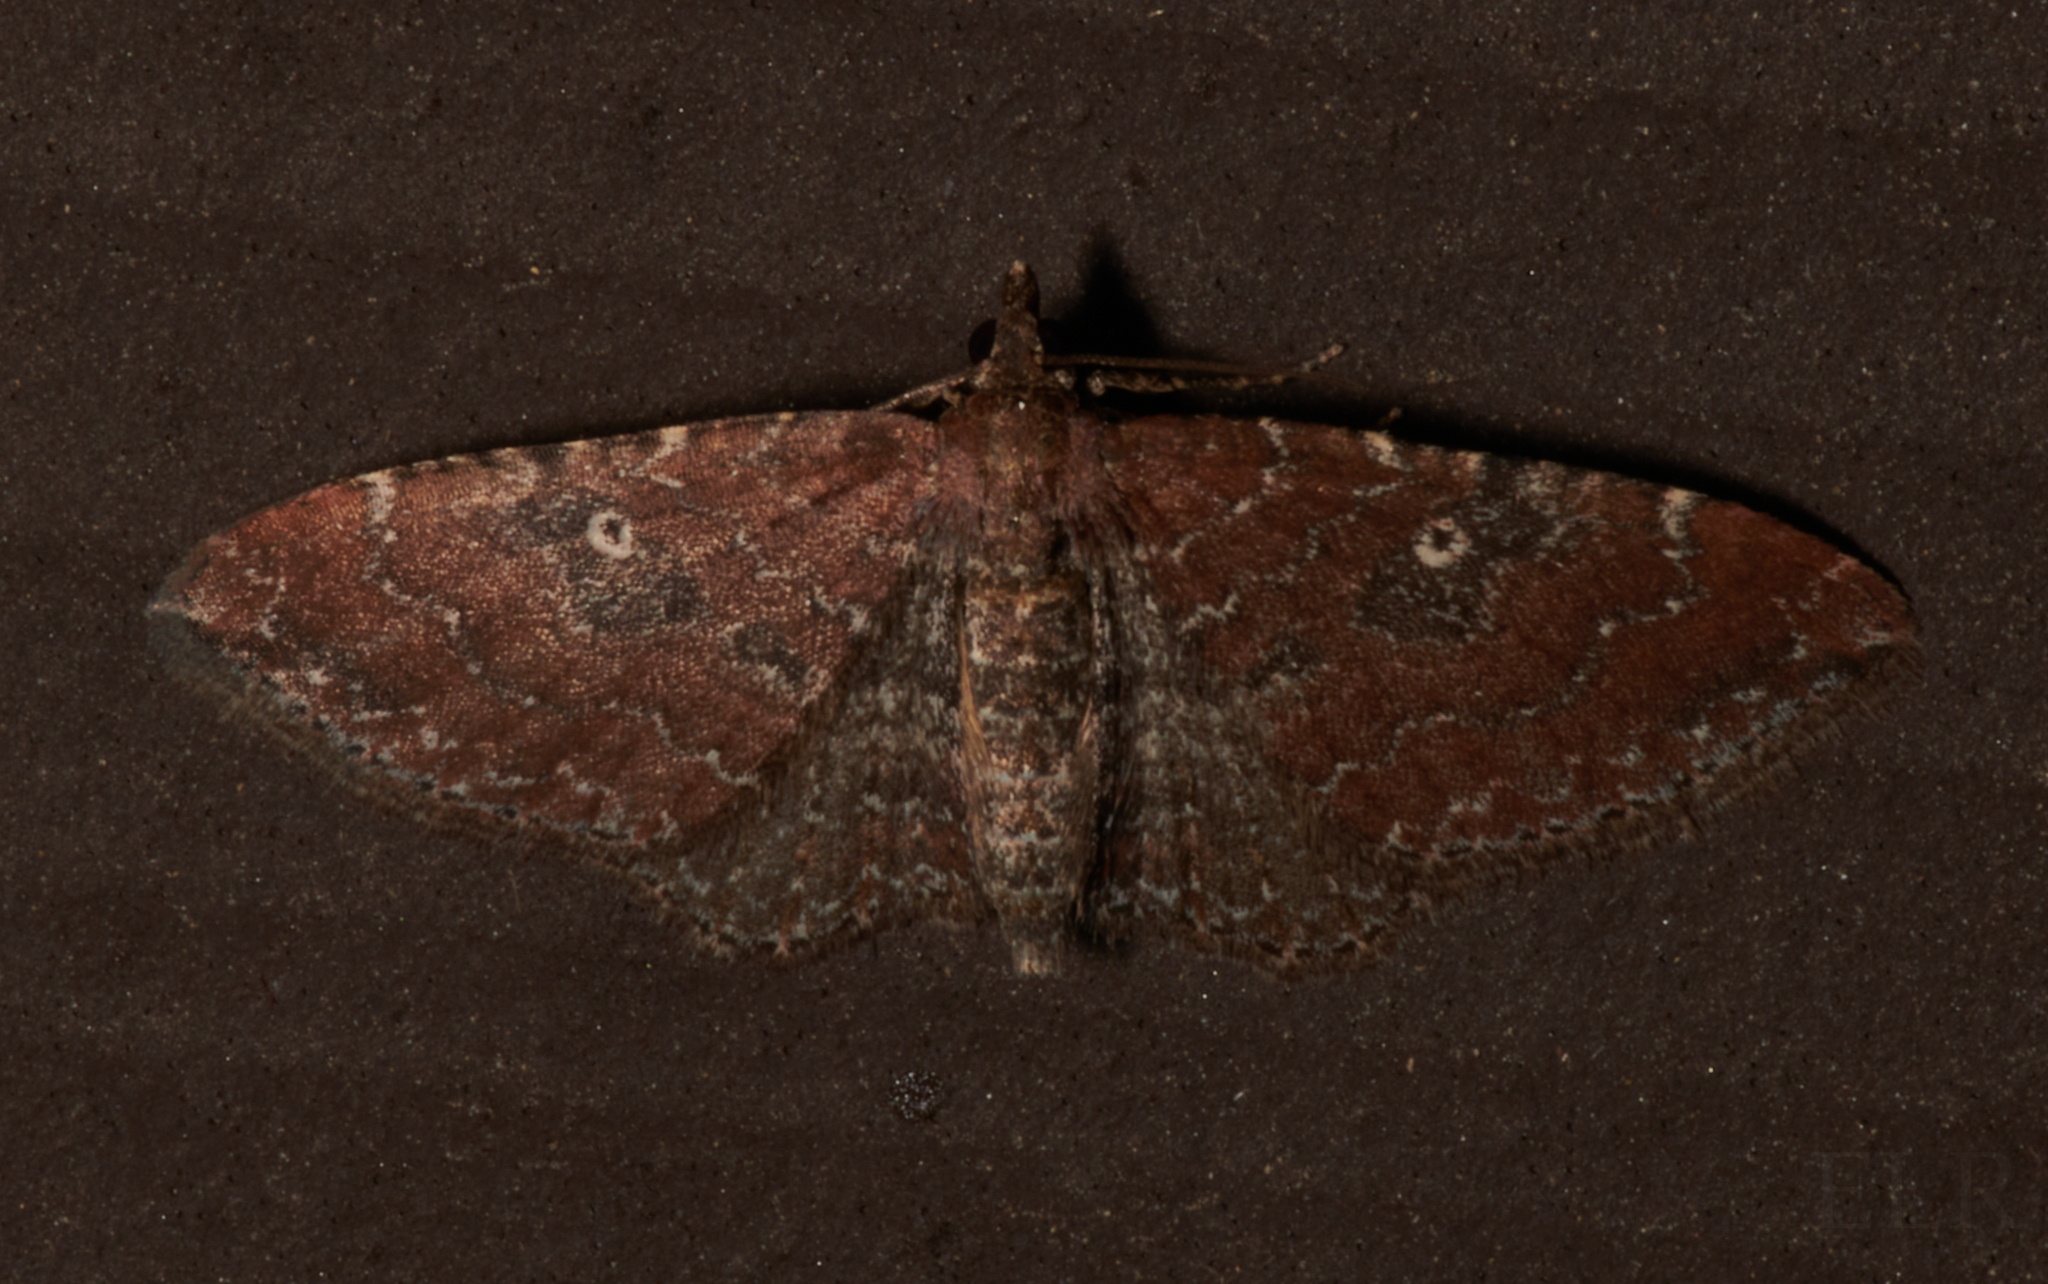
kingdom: Animalia
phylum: Arthropoda
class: Insecta
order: Lepidoptera
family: Geometridae
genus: Orthonama
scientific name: Orthonama obstipata
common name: The gem
